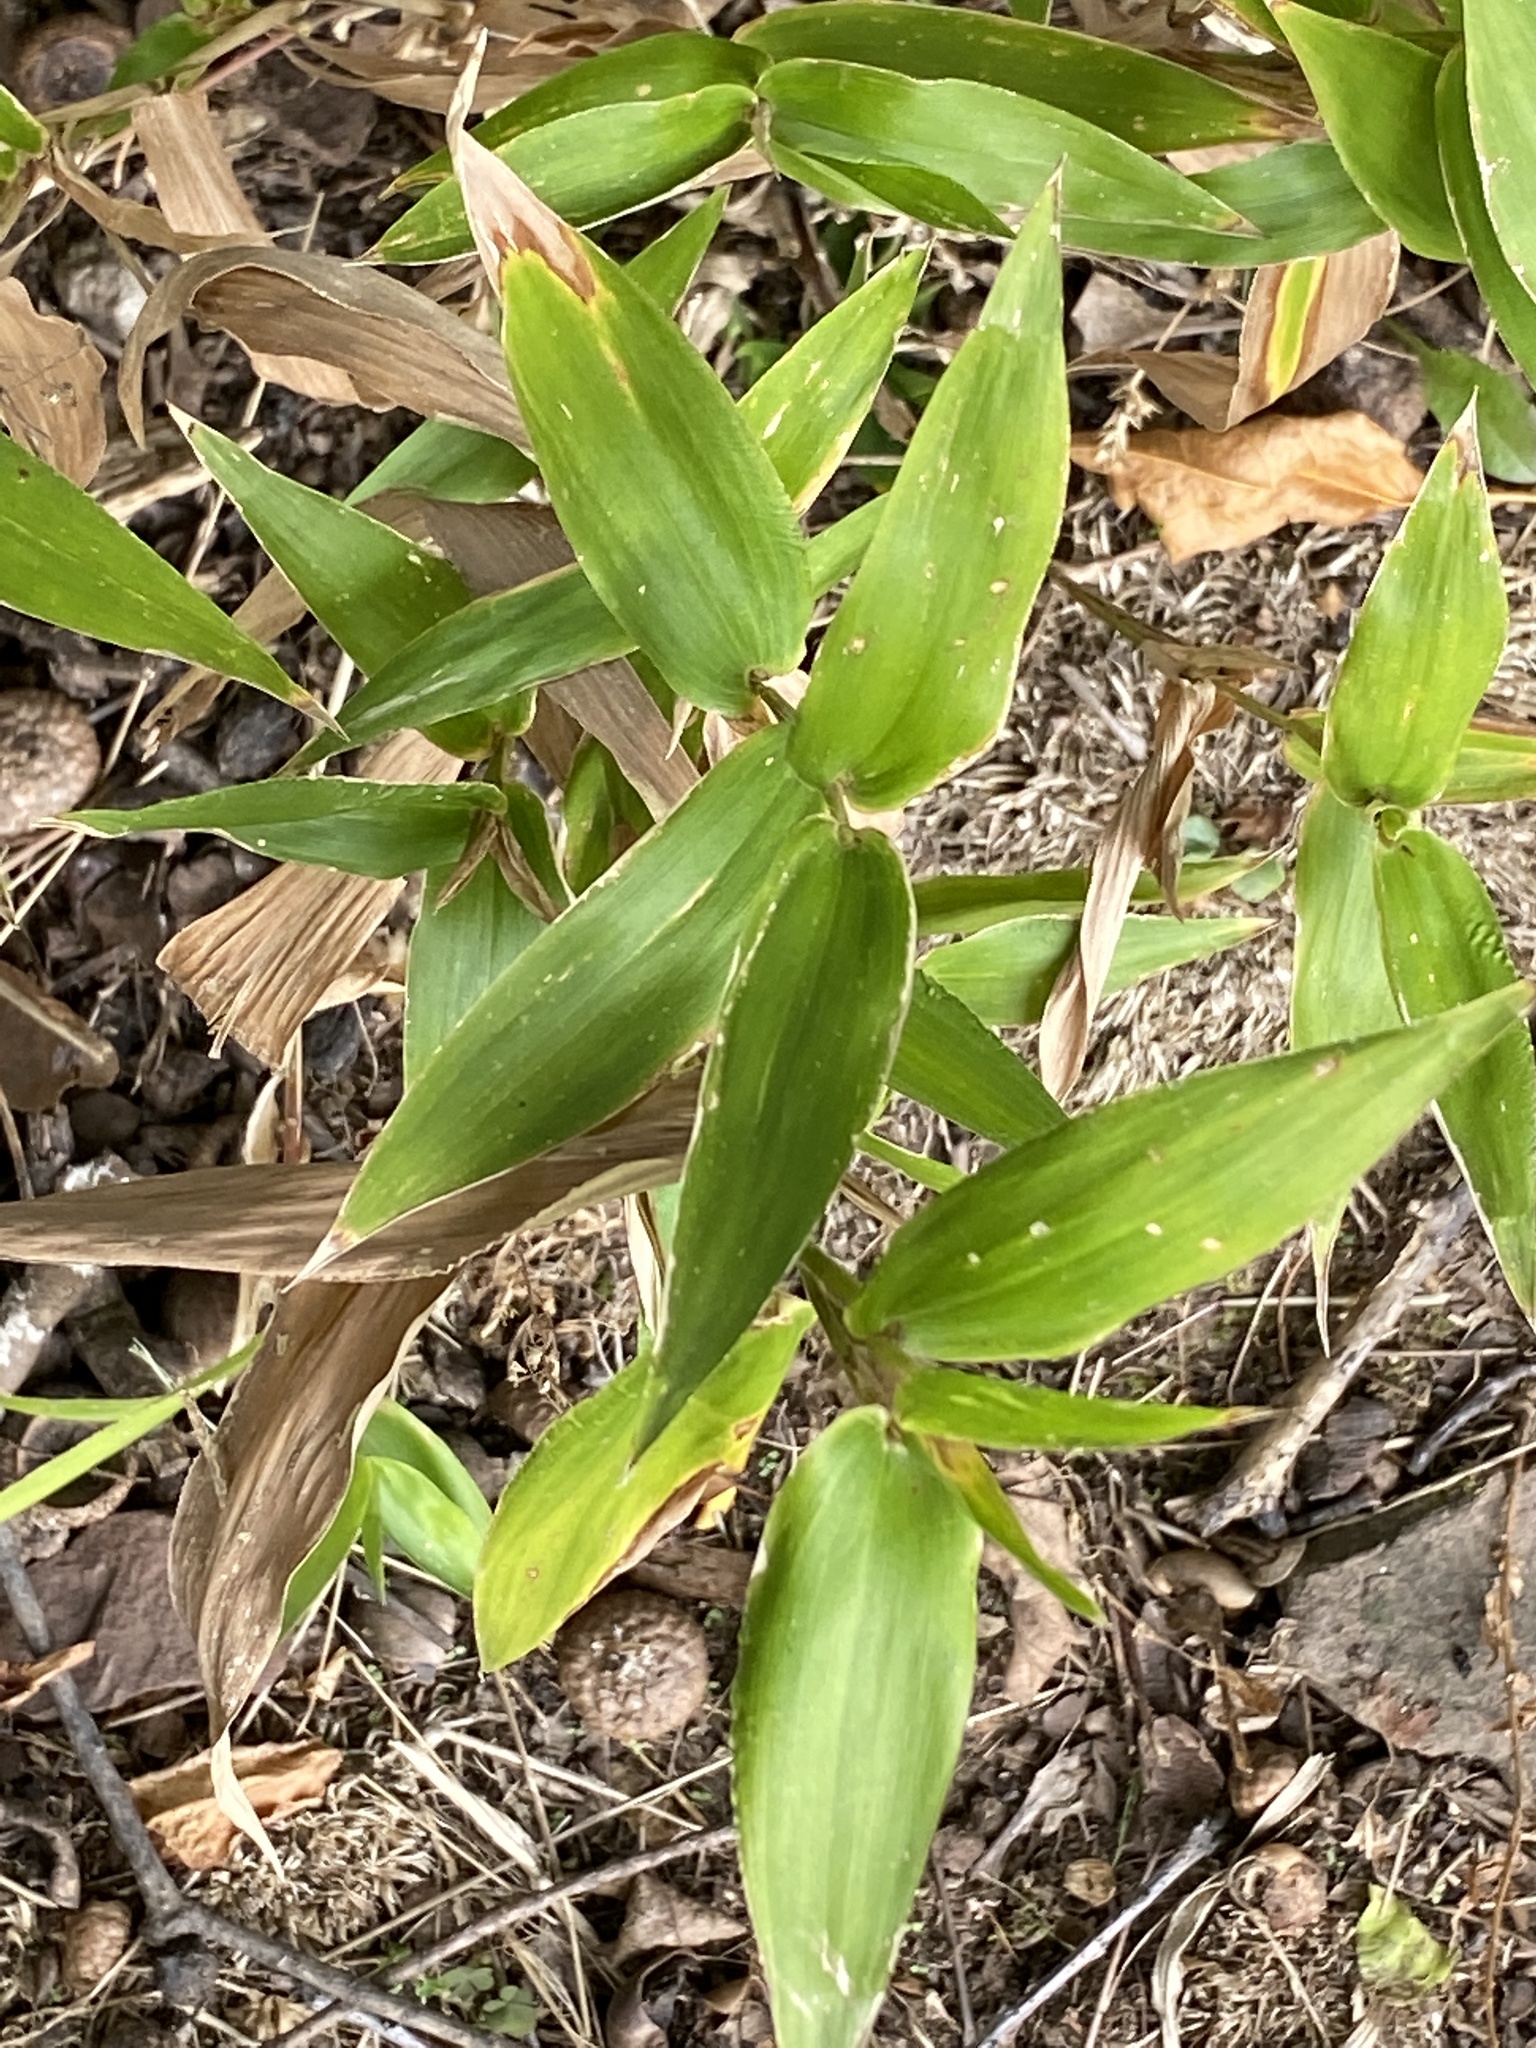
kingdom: Plantae
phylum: Tracheophyta
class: Liliopsida
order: Poales
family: Poaceae
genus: Dichanthelium
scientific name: Dichanthelium clandestinum
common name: Deer-tongue grass
